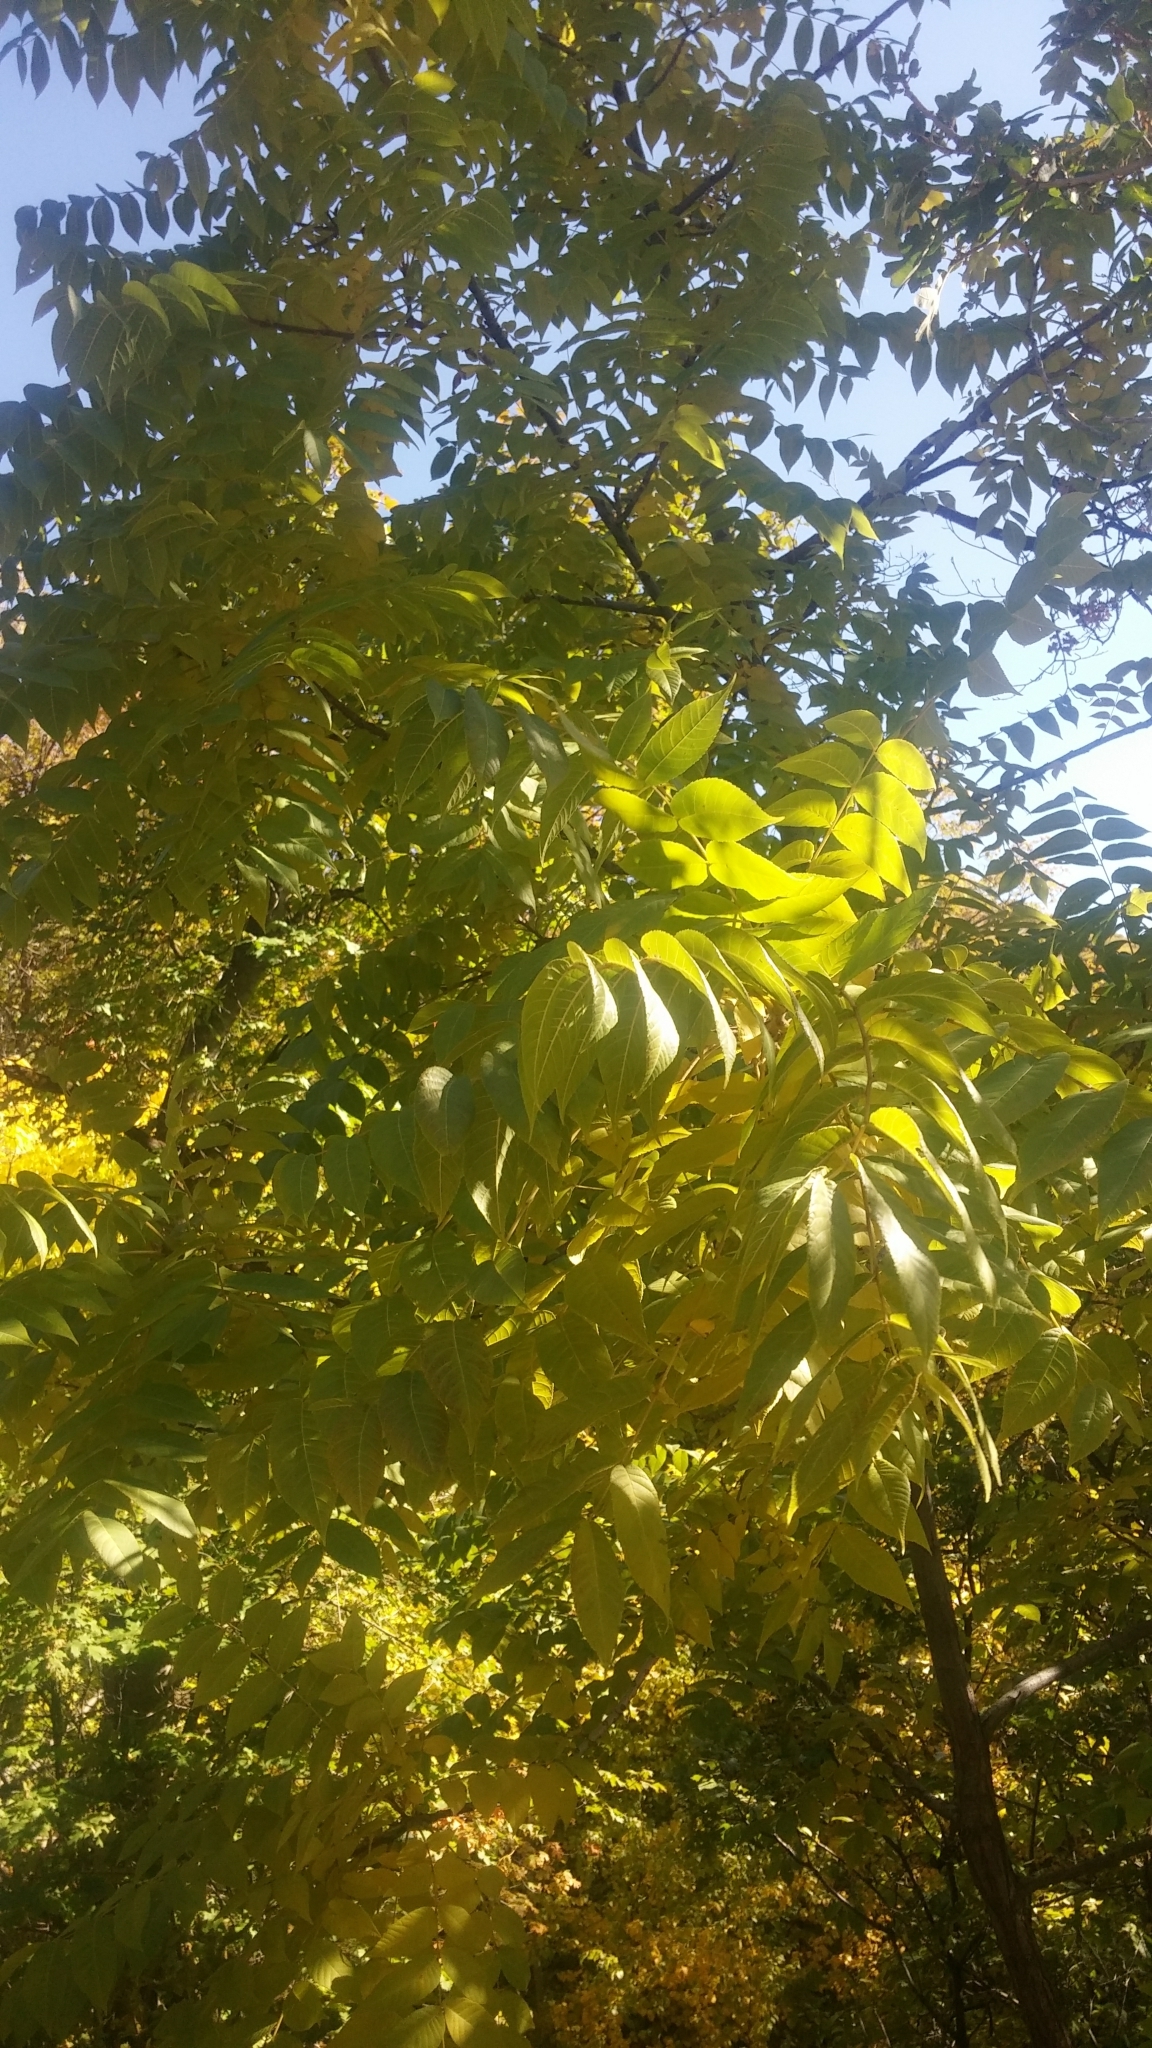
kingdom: Plantae
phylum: Tracheophyta
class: Magnoliopsida
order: Fagales
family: Juglandaceae
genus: Juglans
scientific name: Juglans nigra
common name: Black walnut
